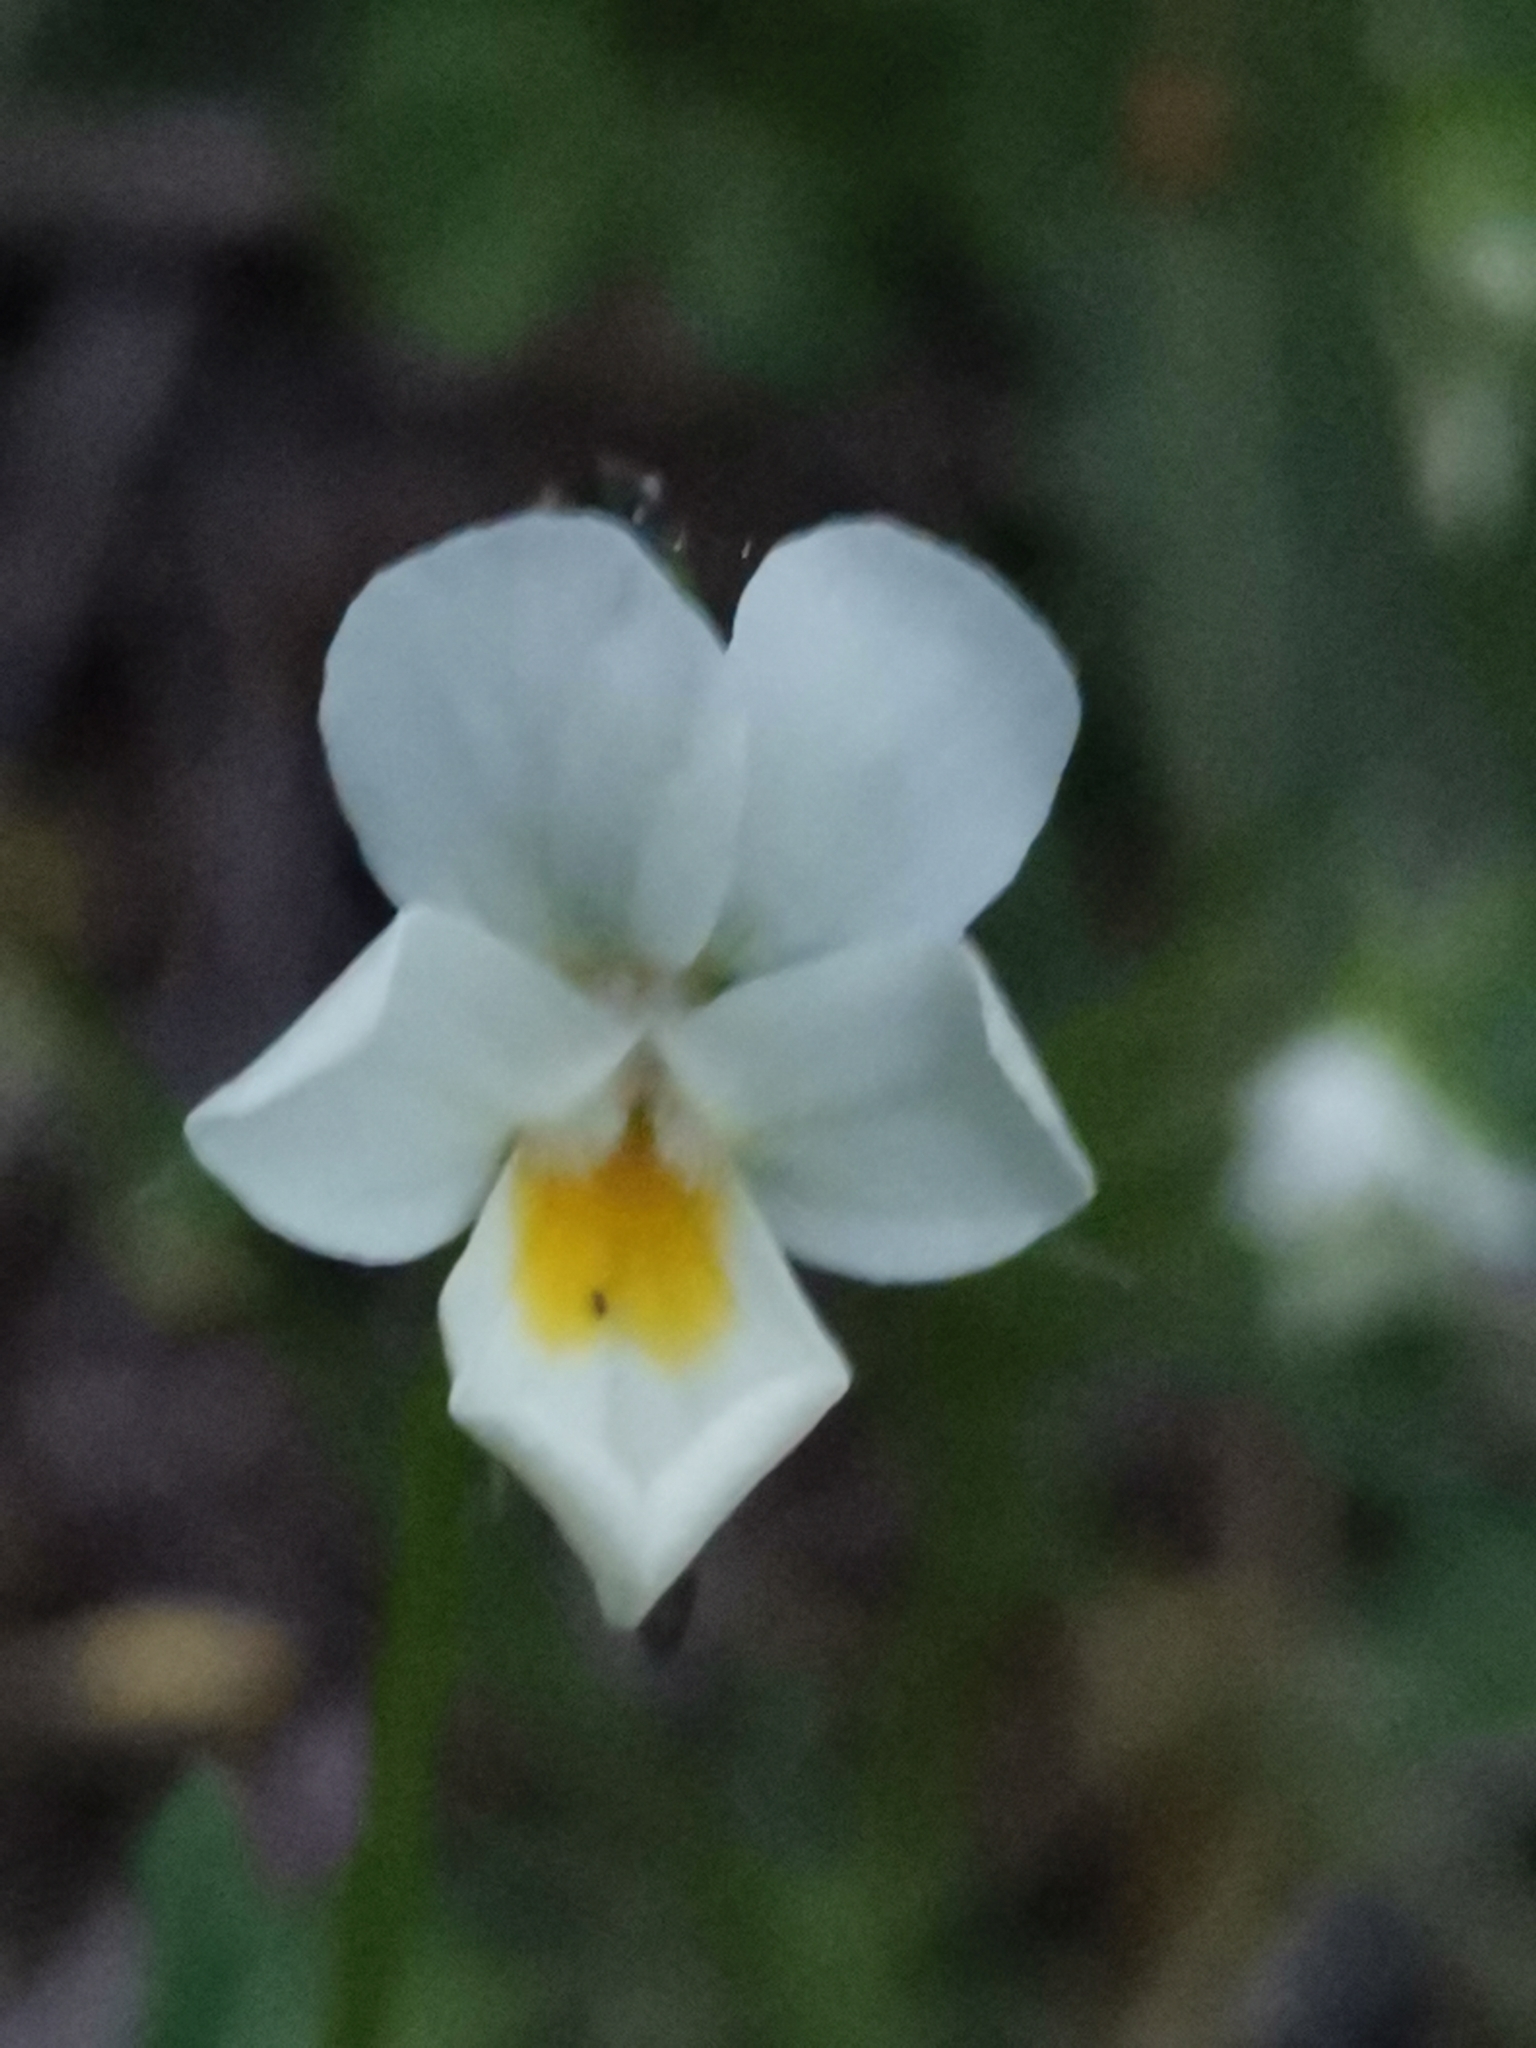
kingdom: Plantae
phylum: Tracheophyta
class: Magnoliopsida
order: Malpighiales
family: Violaceae
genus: Viola
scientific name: Viola arvensis
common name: Field pansy
